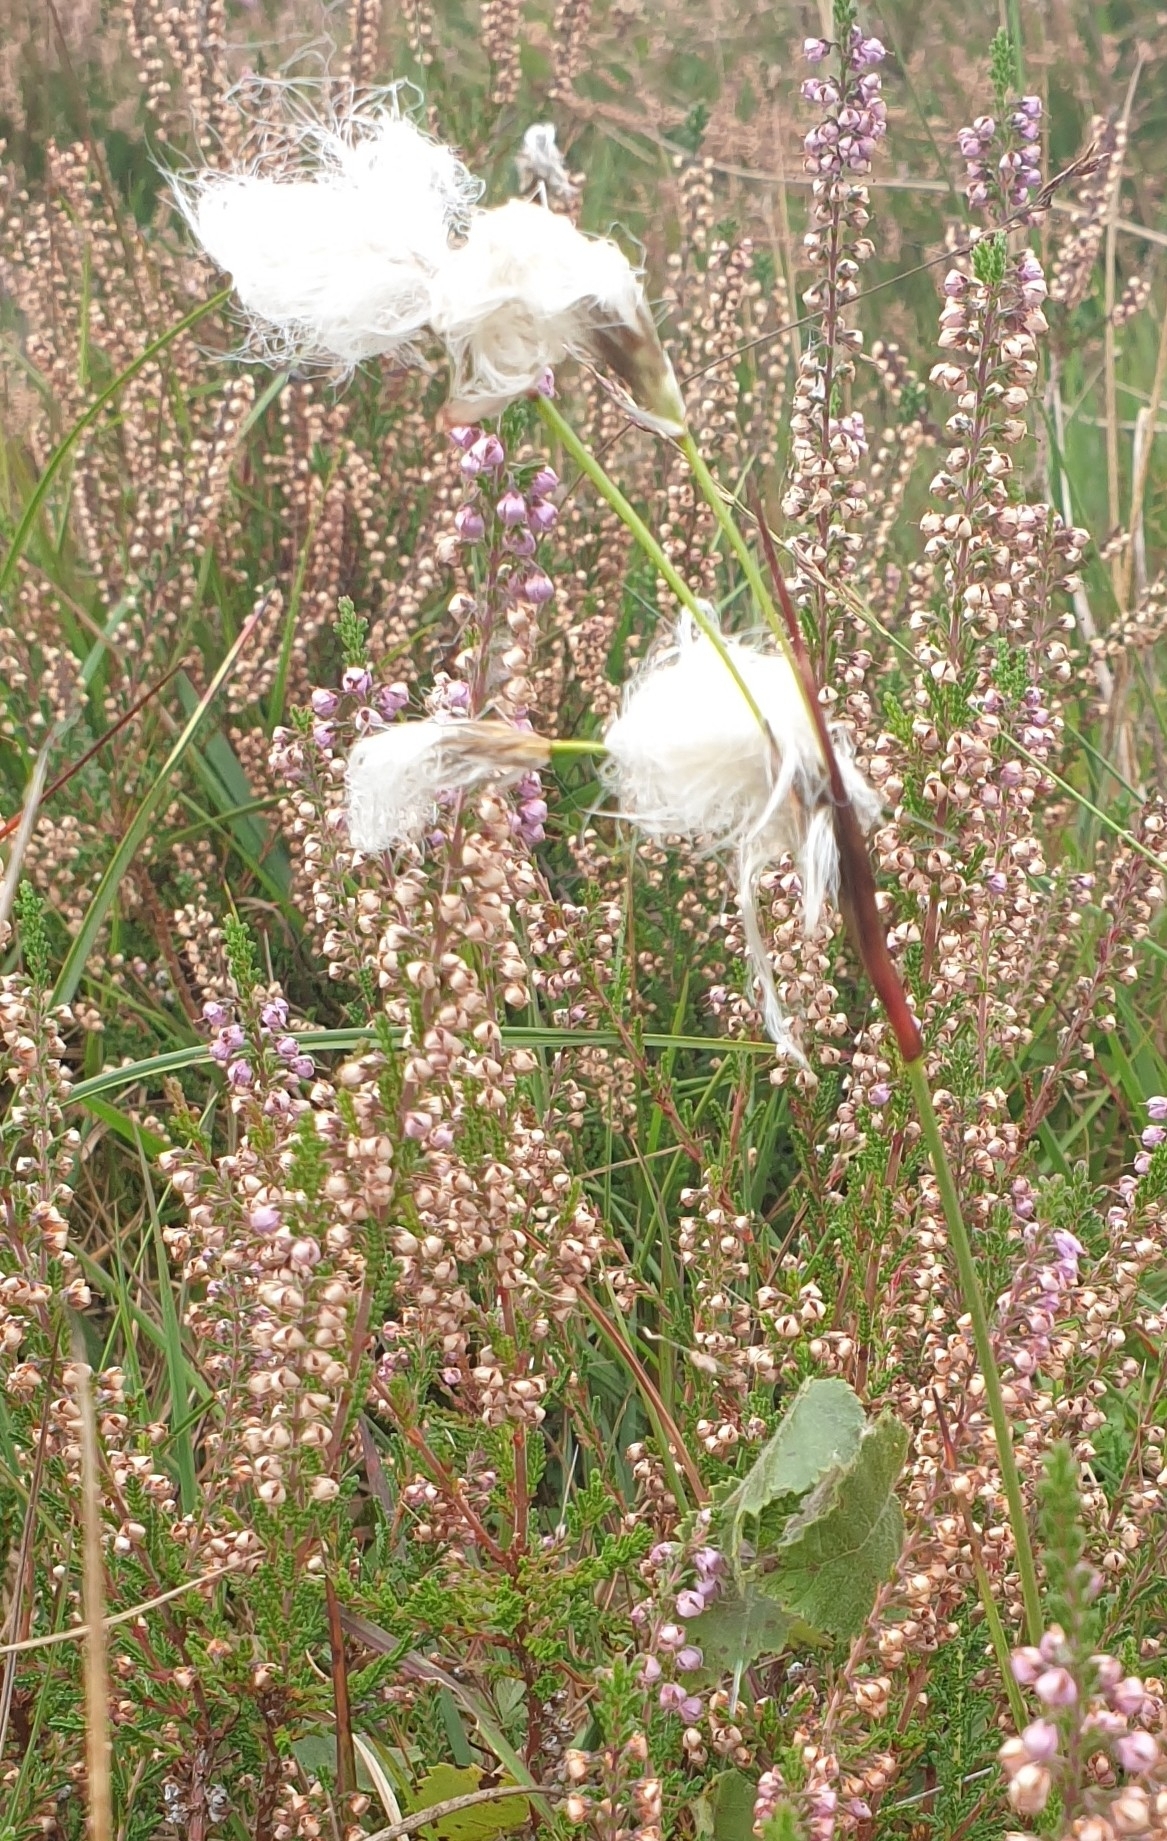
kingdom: Plantae
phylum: Tracheophyta
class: Liliopsida
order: Poales
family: Cyperaceae
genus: Eriophorum
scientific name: Eriophorum angustifolium
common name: Common cottongrass
